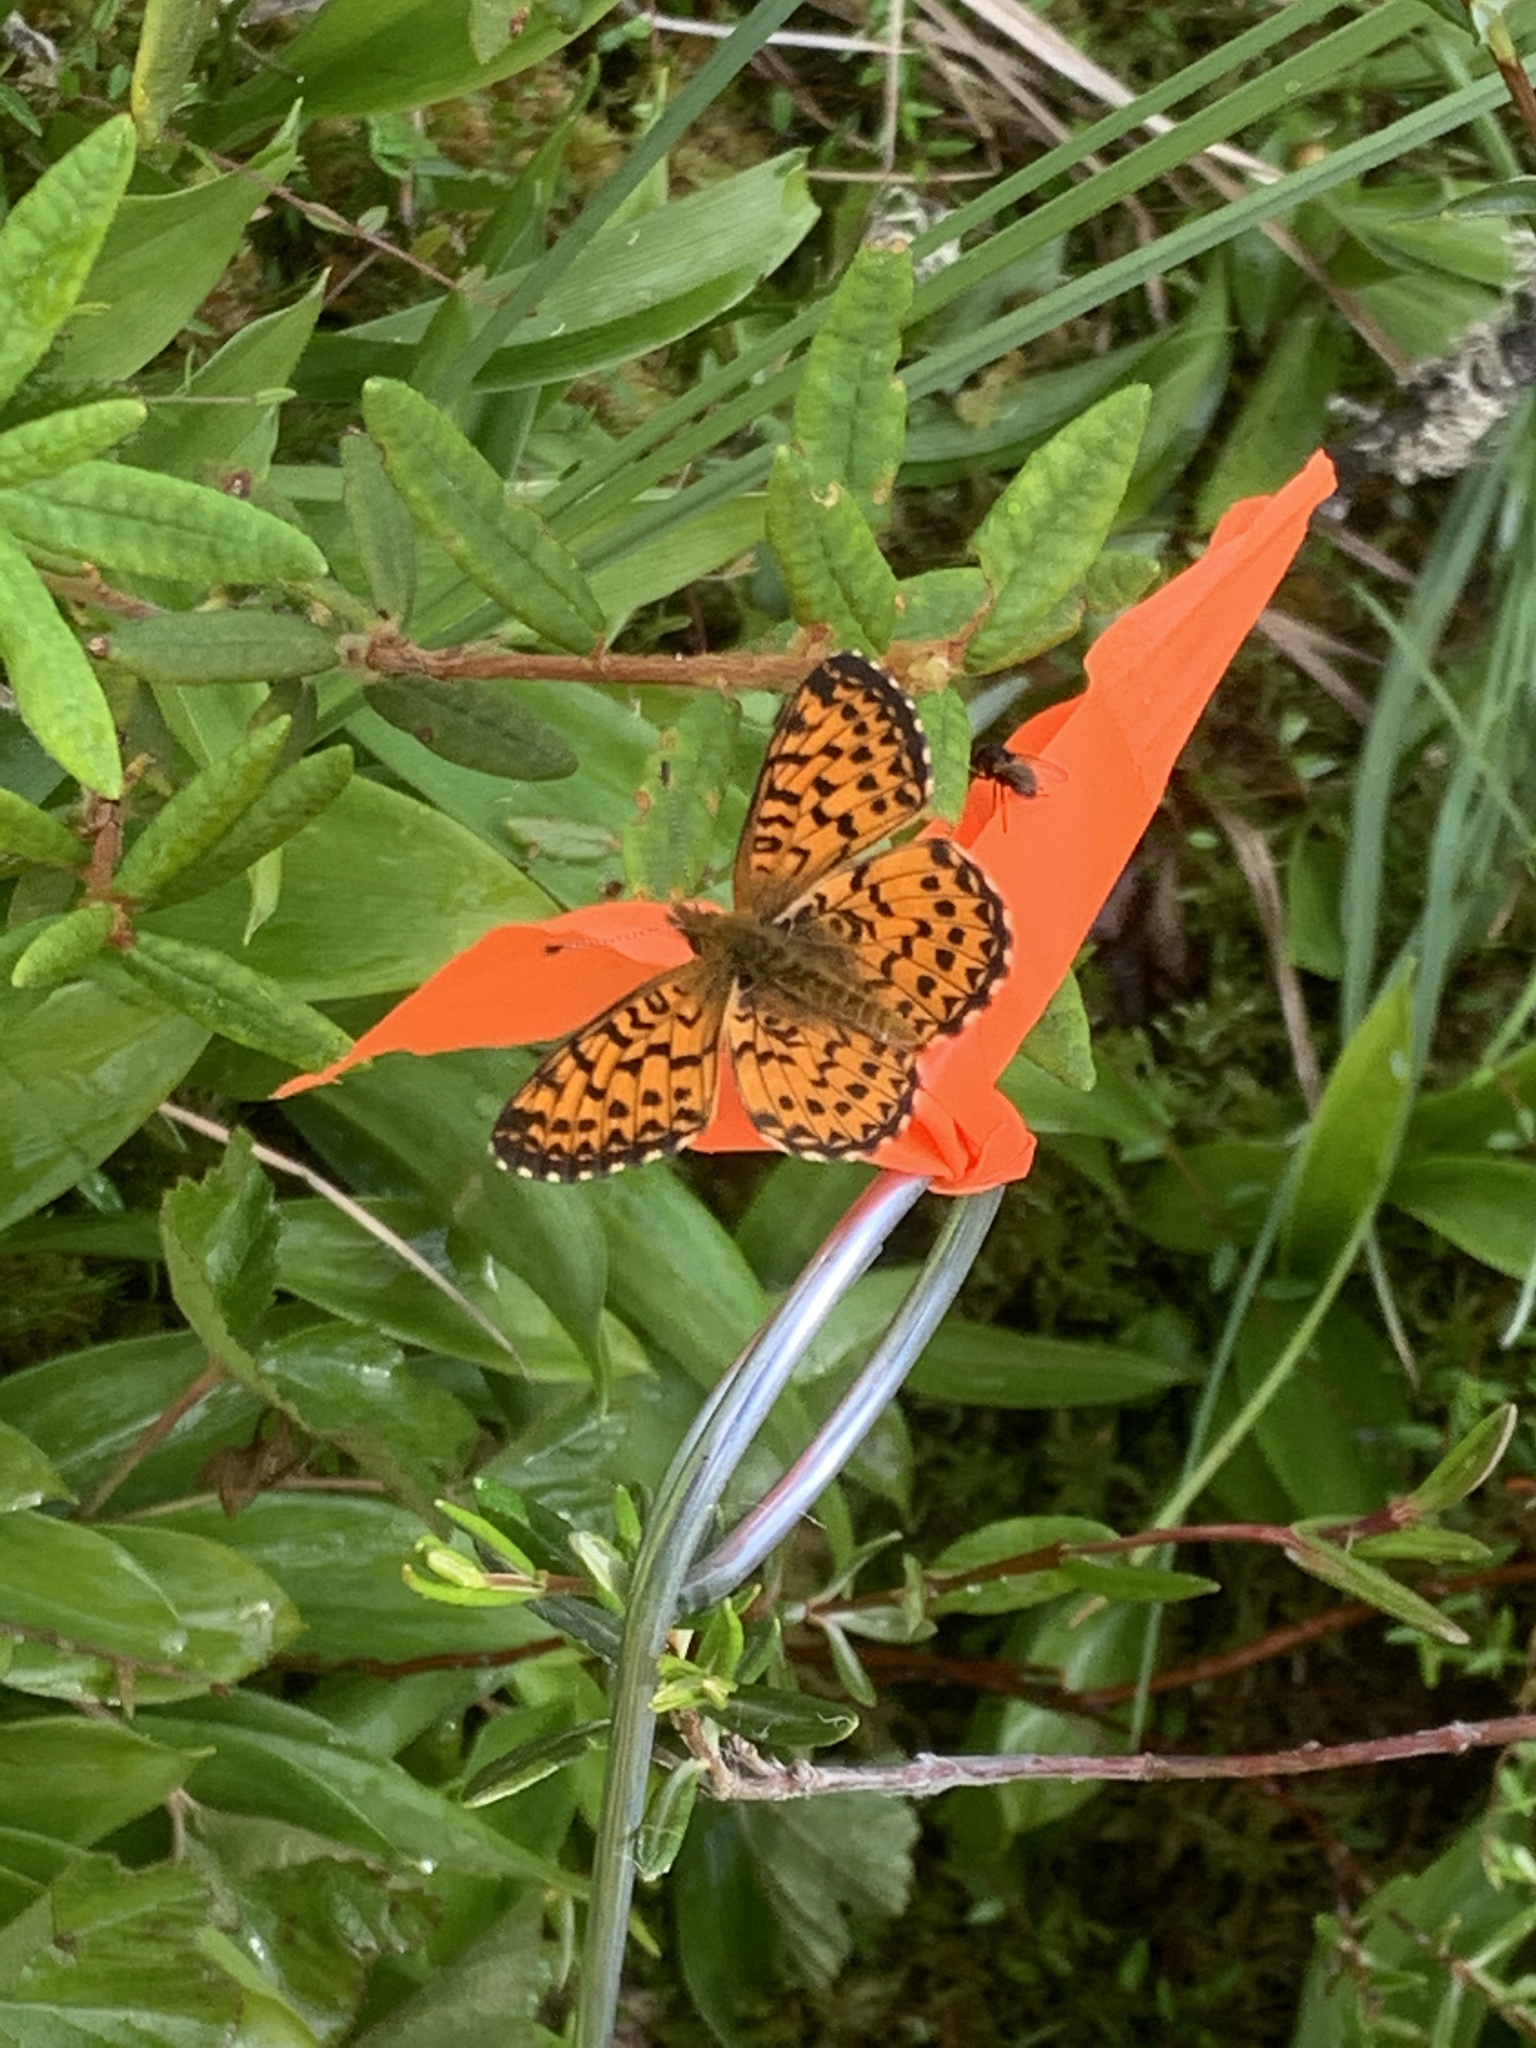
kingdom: Animalia
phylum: Arthropoda
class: Insecta
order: Lepidoptera
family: Nymphalidae
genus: Boloria
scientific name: Boloria chariclea
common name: Arctic fritillary
